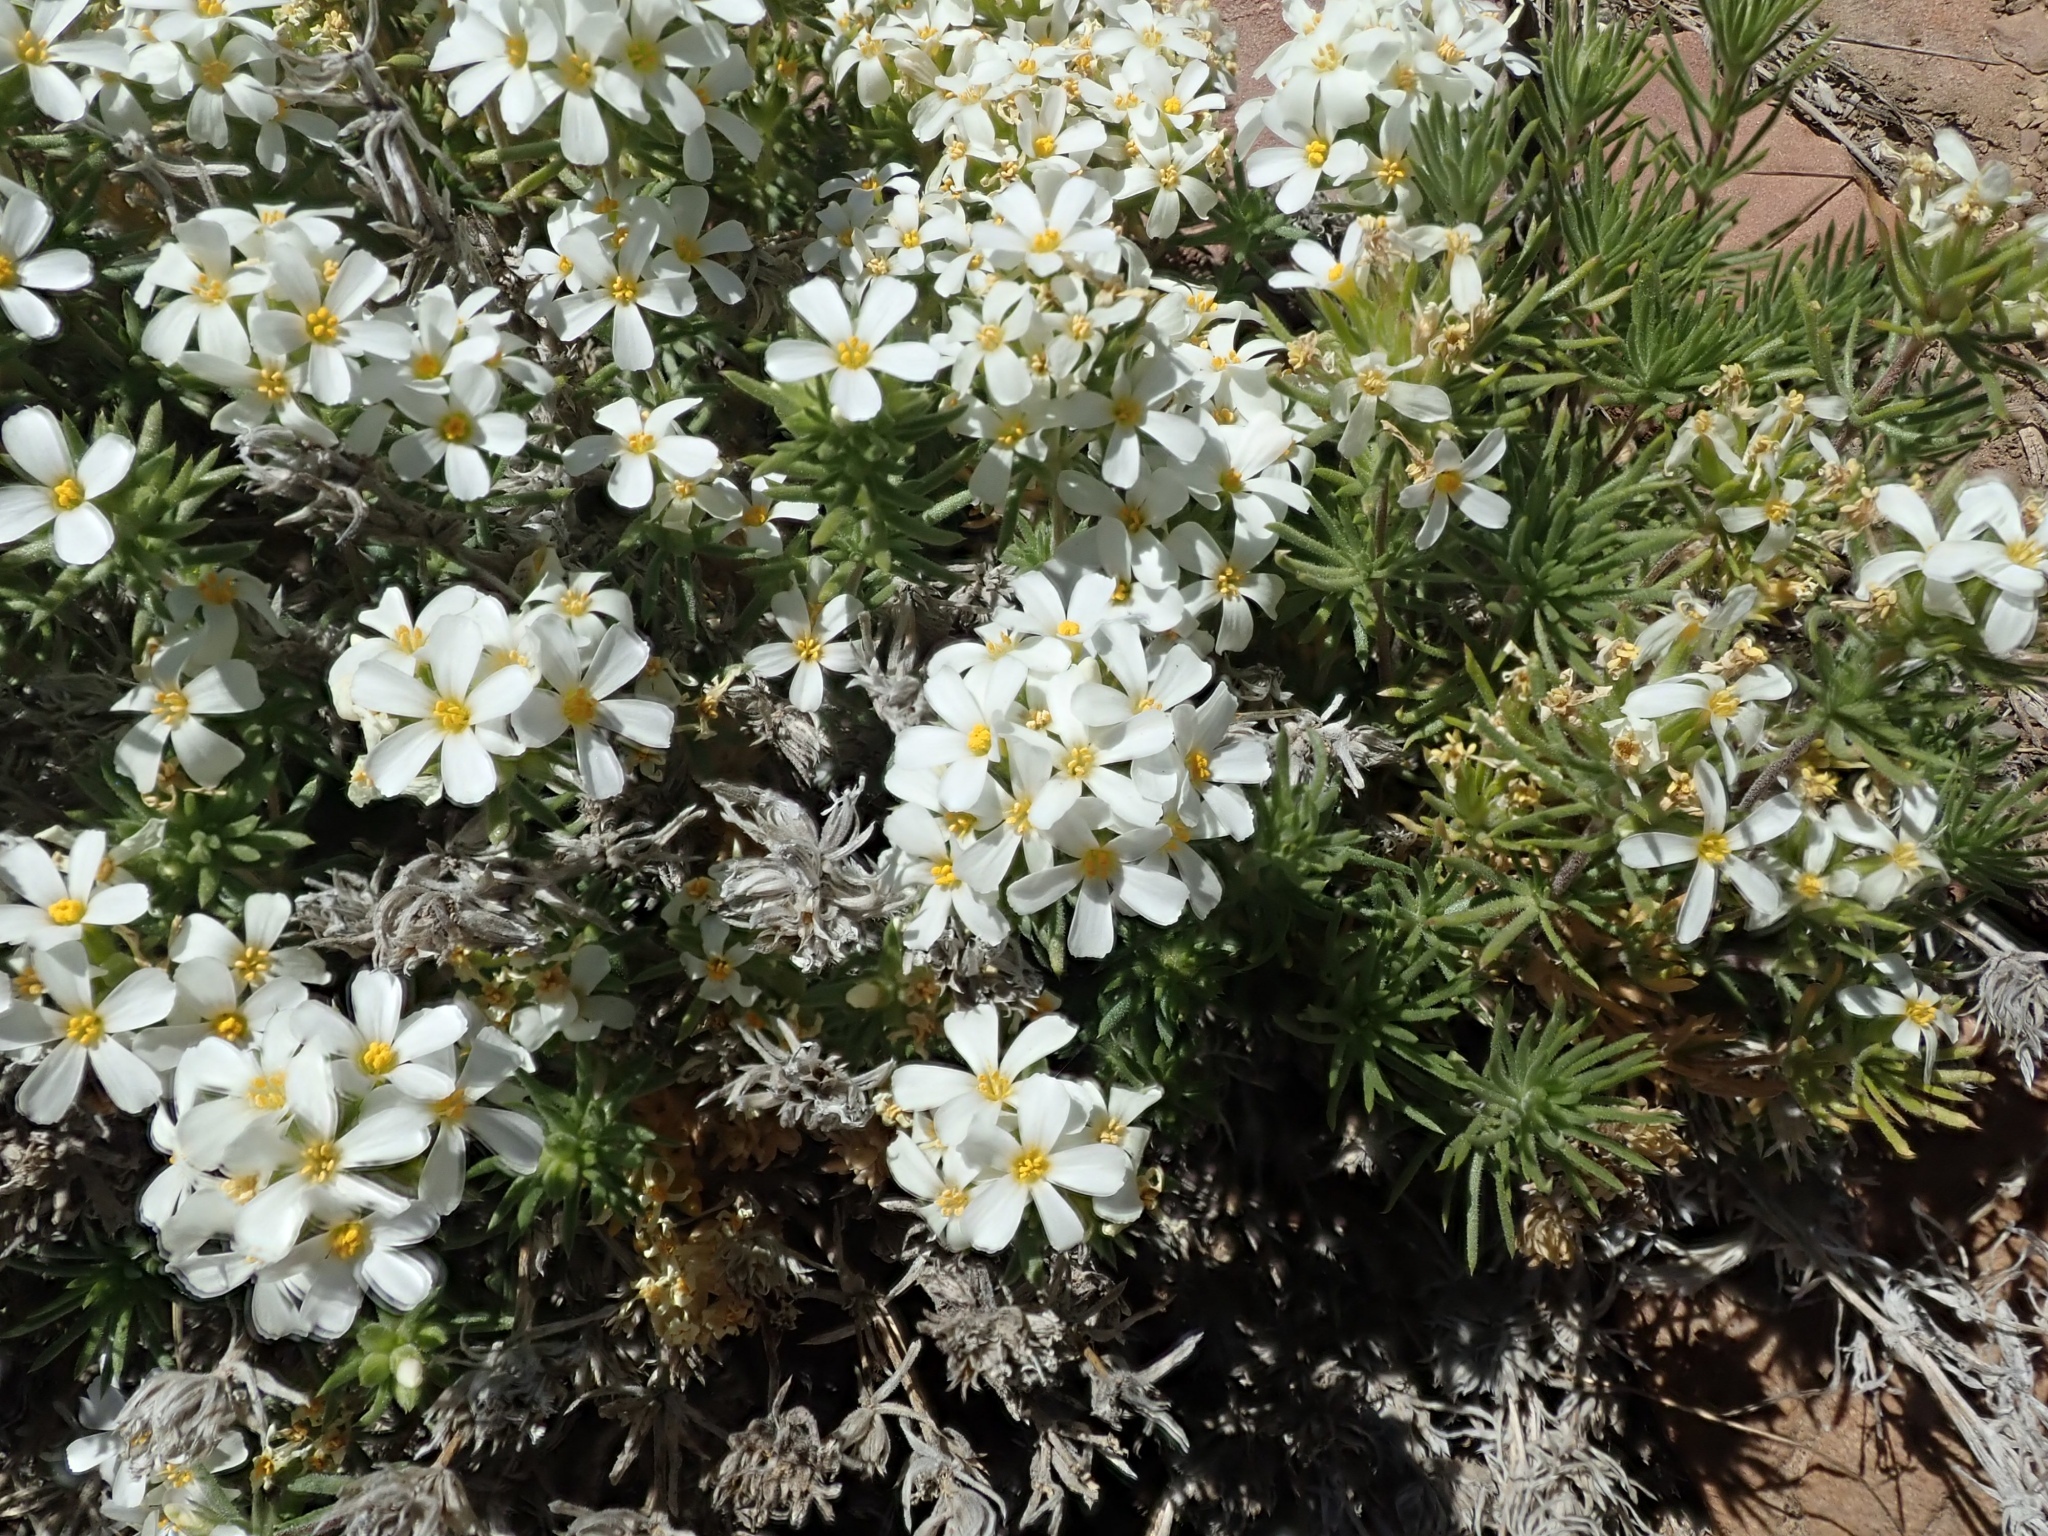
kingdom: Plantae
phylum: Tracheophyta
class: Magnoliopsida
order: Ericales
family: Polemoniaceae
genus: Leptosiphon
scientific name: Leptosiphon nuttallii
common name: Nuttall's linanthus
